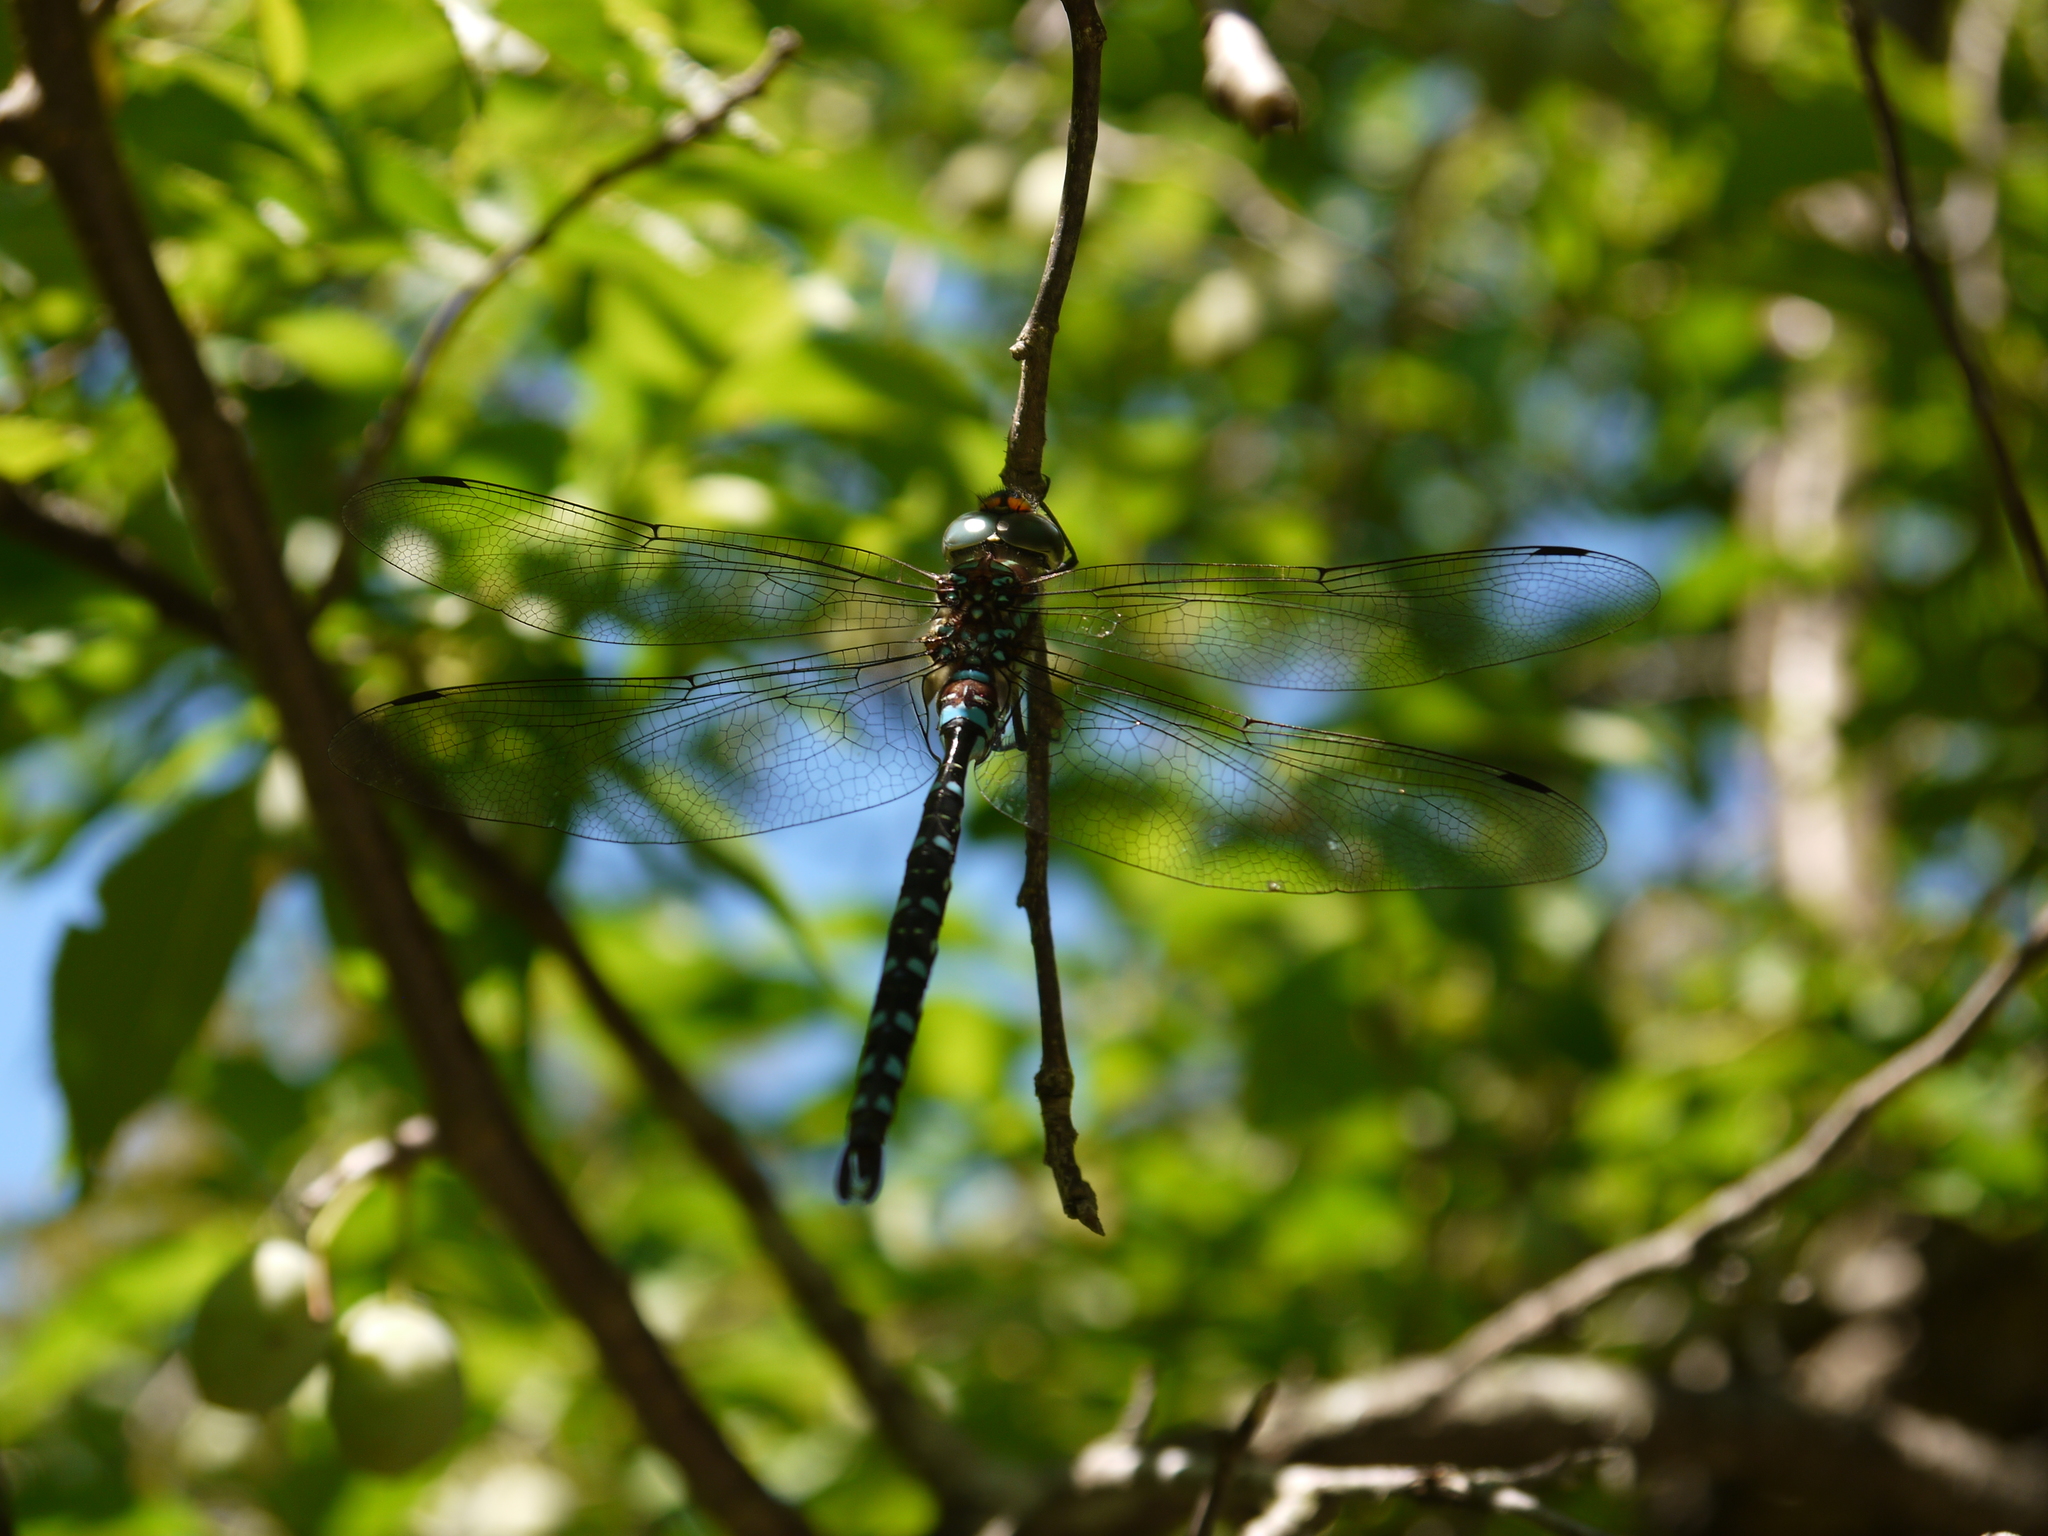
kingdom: Animalia
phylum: Arthropoda
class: Insecta
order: Odonata
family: Aeshnidae
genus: Aeshna
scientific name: Aeshna tuberculifera
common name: Aeschne à tubercules
